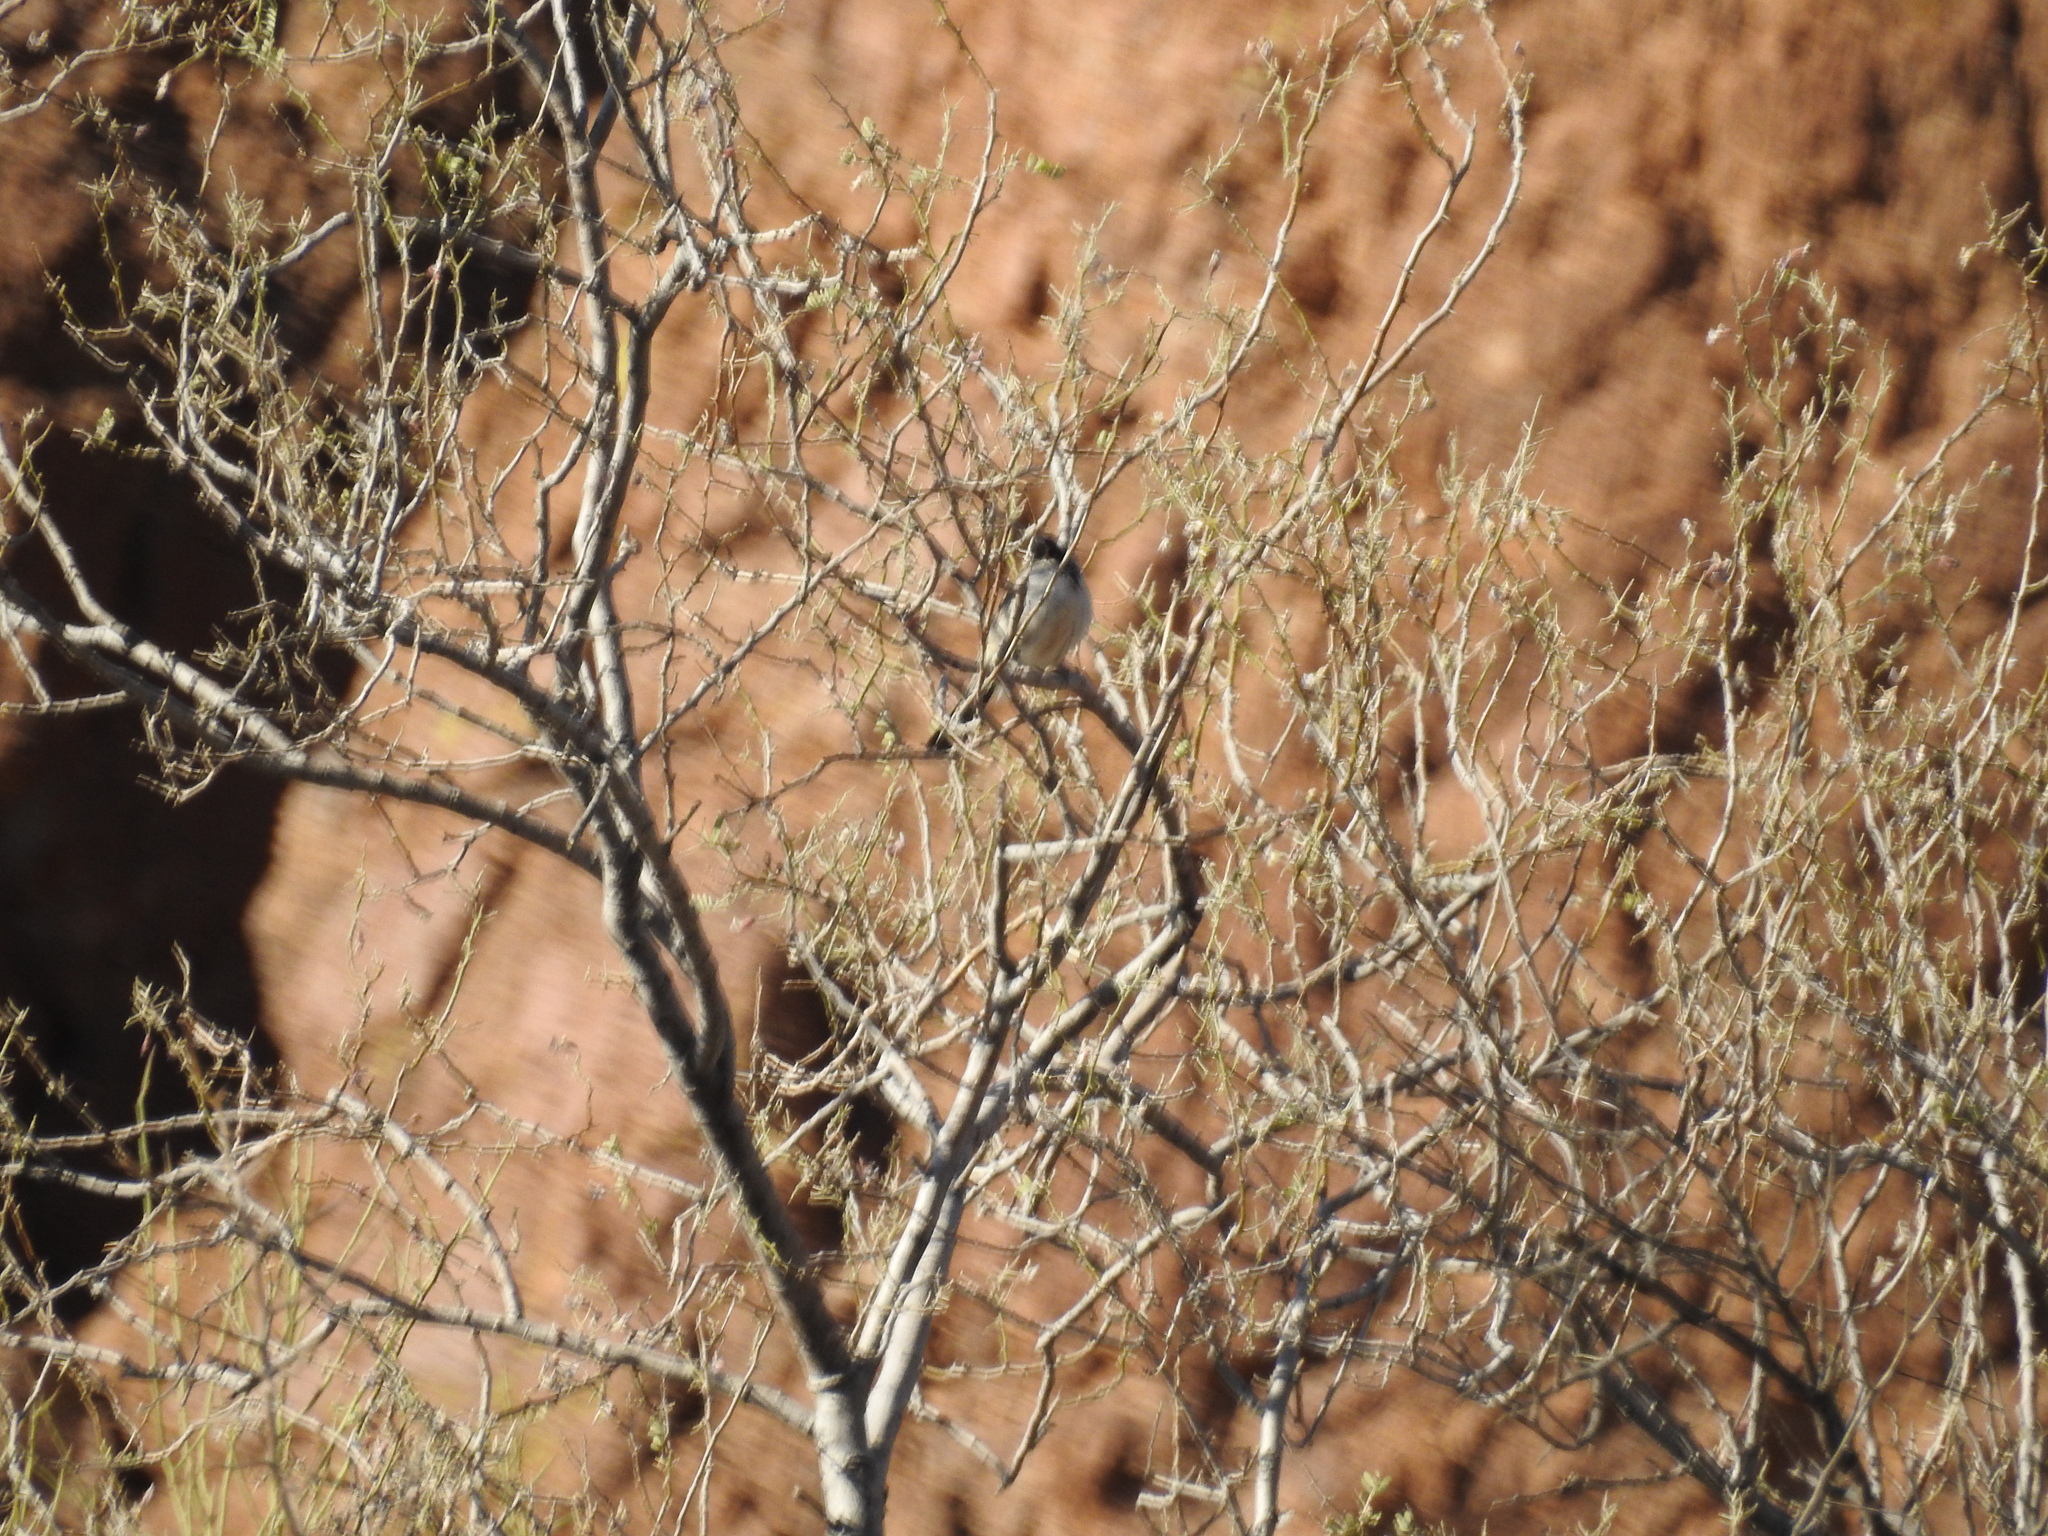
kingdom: Animalia
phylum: Chordata
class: Aves
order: Passeriformes
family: Passerellidae
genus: Amphispiza
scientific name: Amphispiza bilineata
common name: Black-throated sparrow
